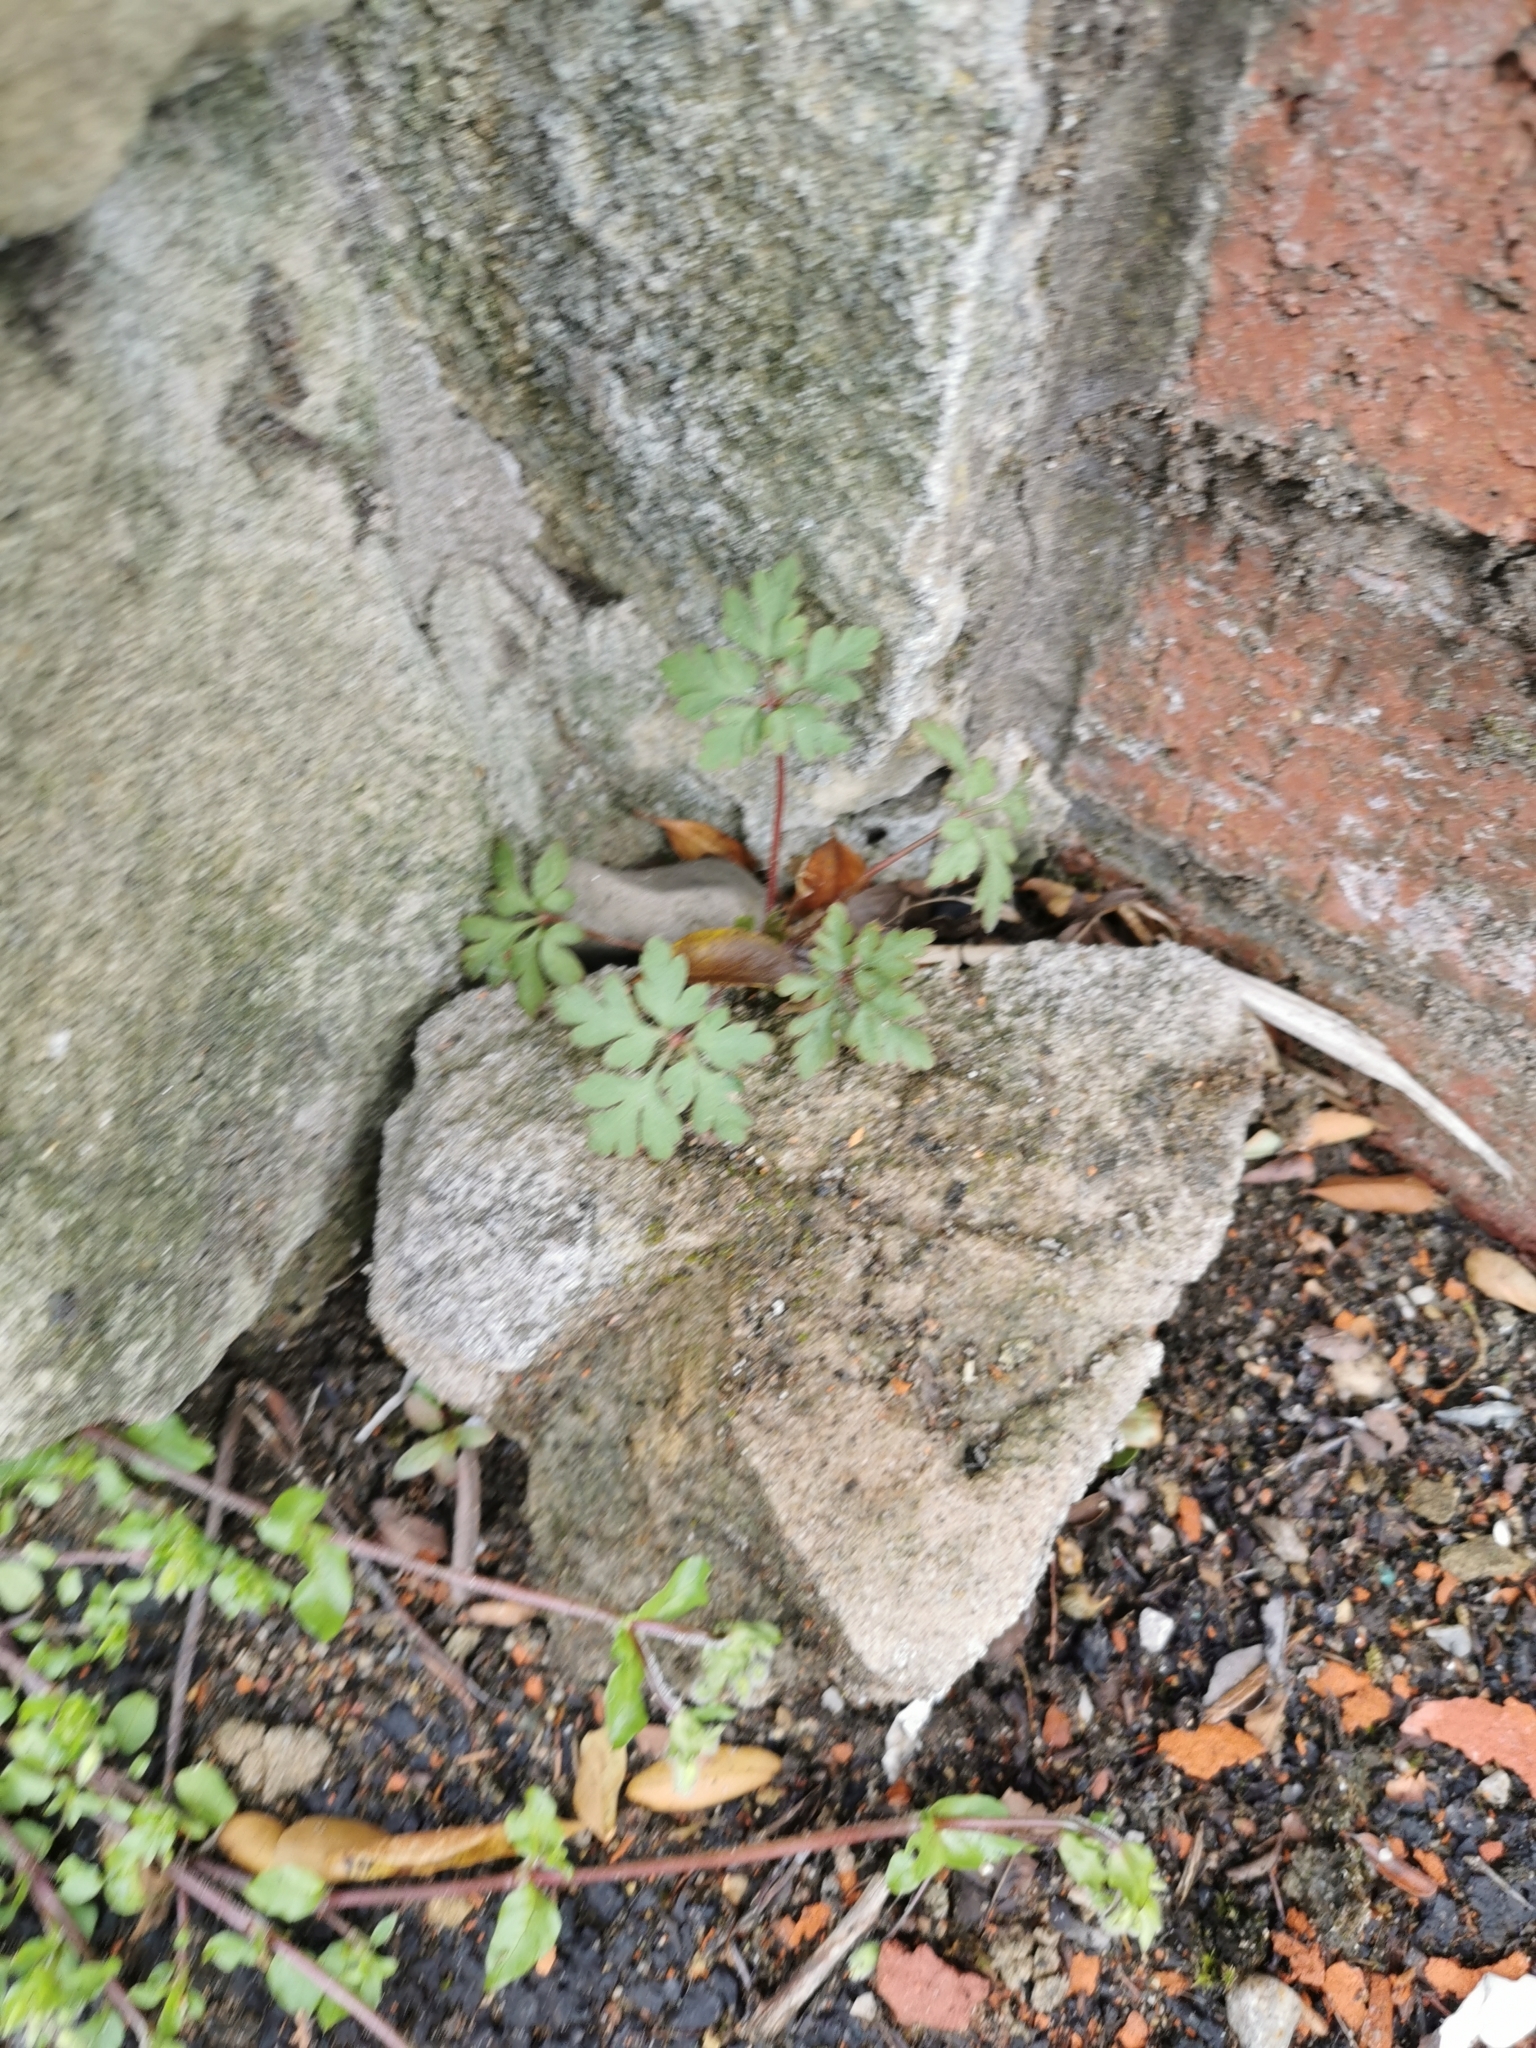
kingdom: Plantae
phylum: Tracheophyta
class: Magnoliopsida
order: Geraniales
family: Geraniaceae
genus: Geranium
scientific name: Geranium robertianum
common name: Herb-robert
